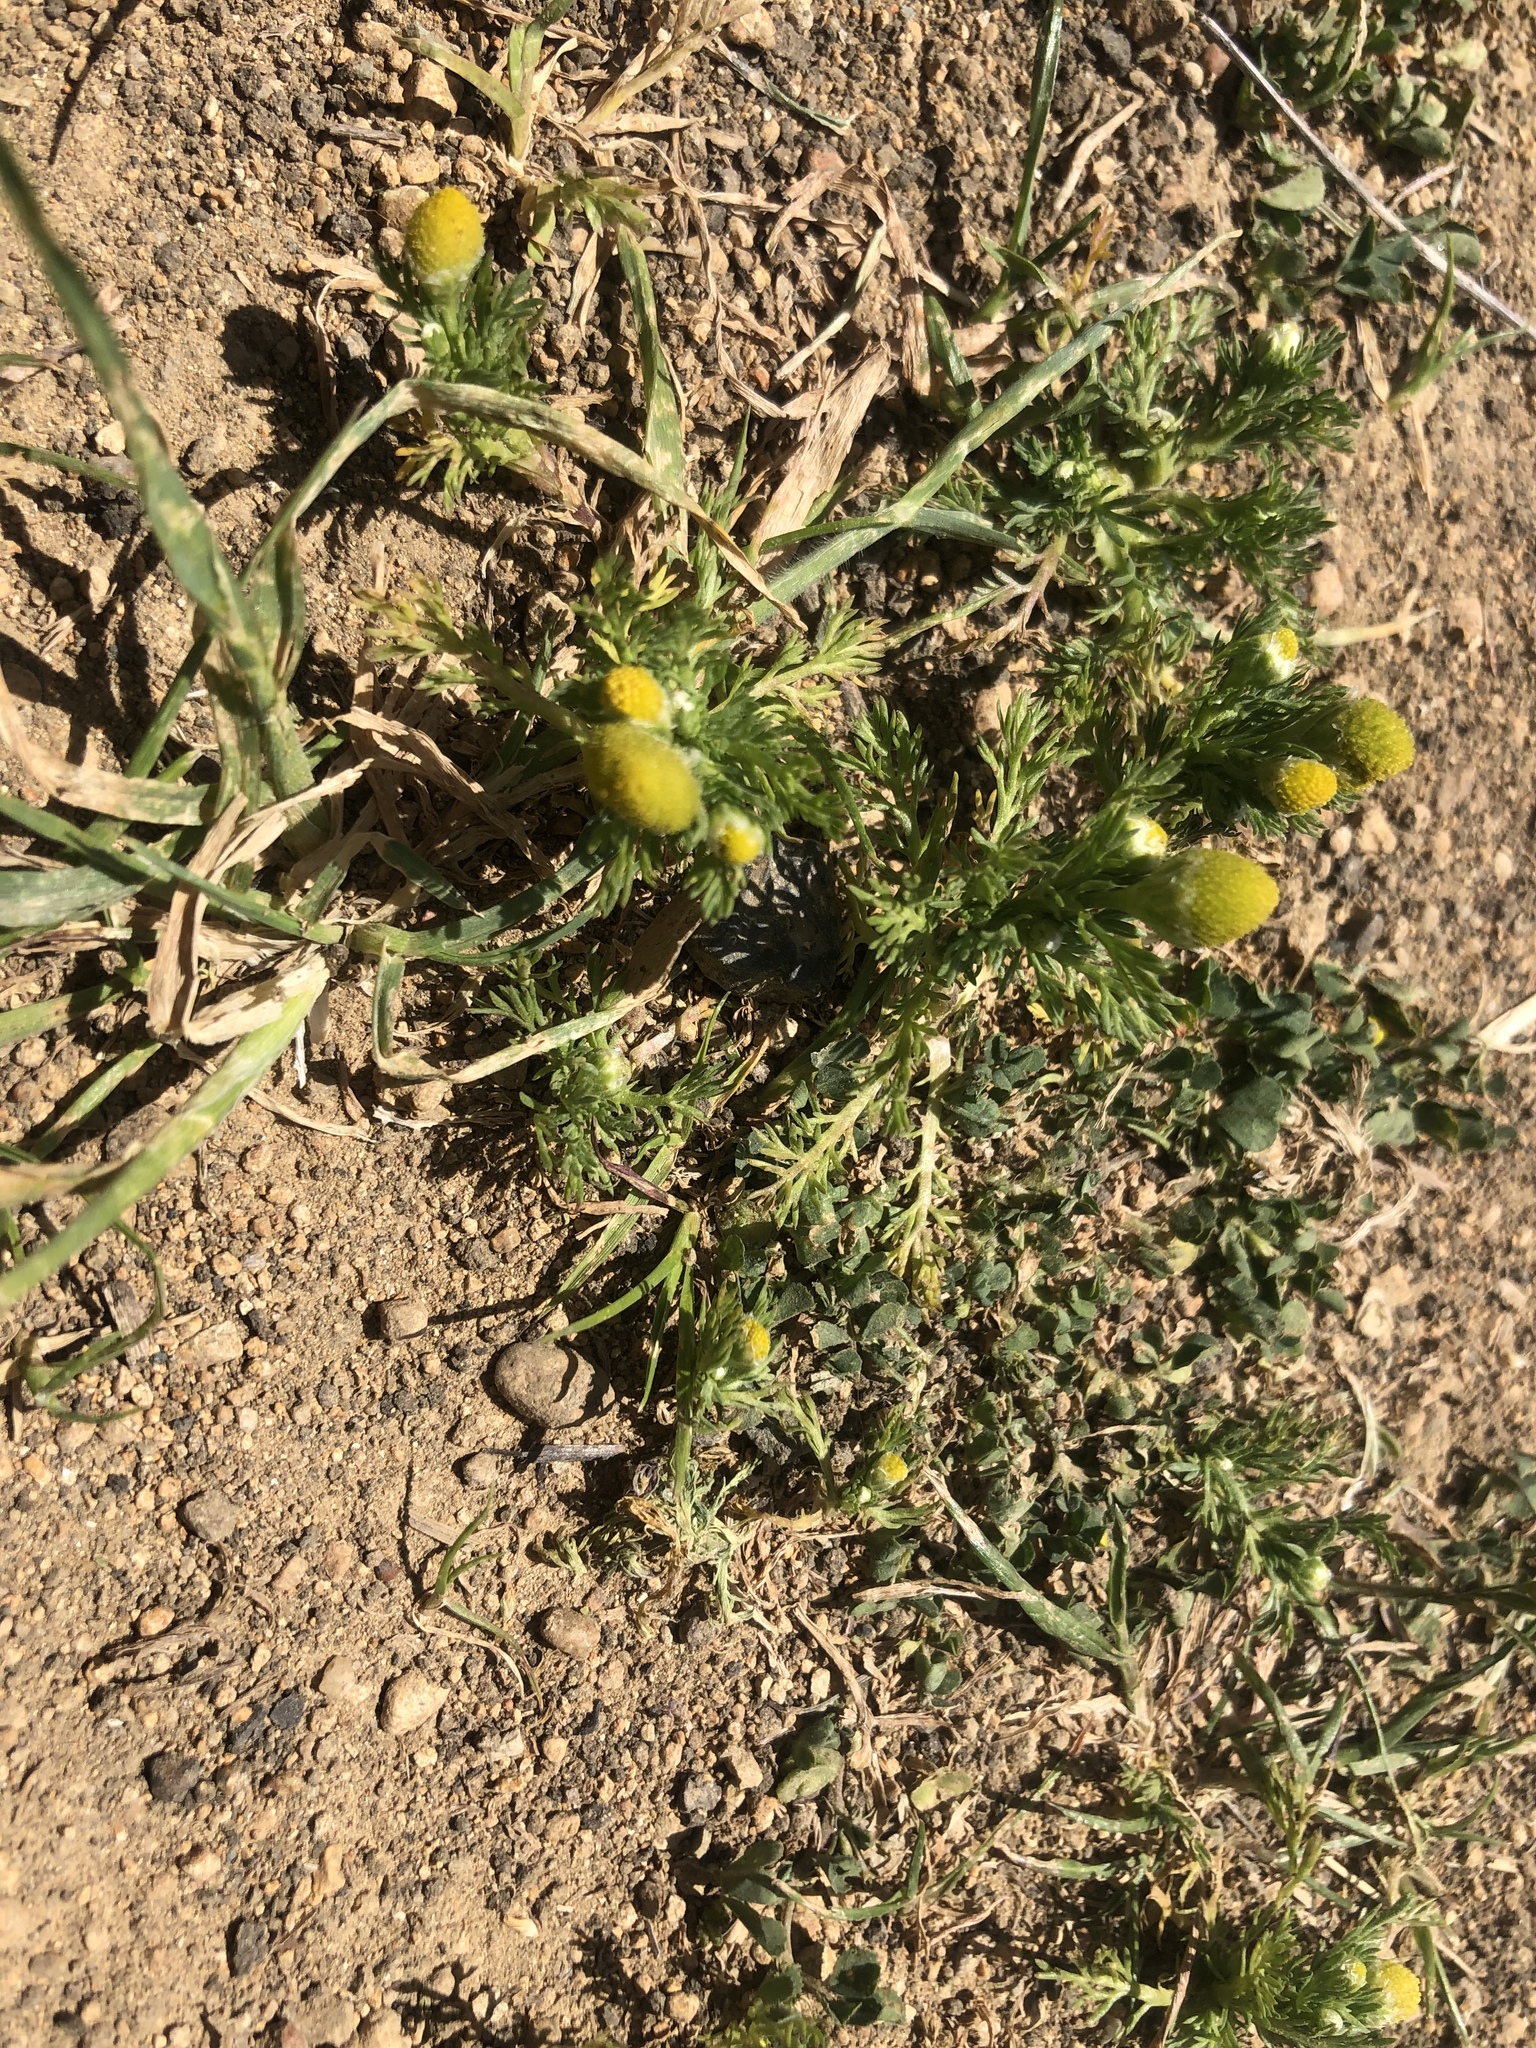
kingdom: Plantae
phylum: Tracheophyta
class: Magnoliopsida
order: Asterales
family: Asteraceae
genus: Matricaria
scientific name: Matricaria discoidea
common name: Disc mayweed
